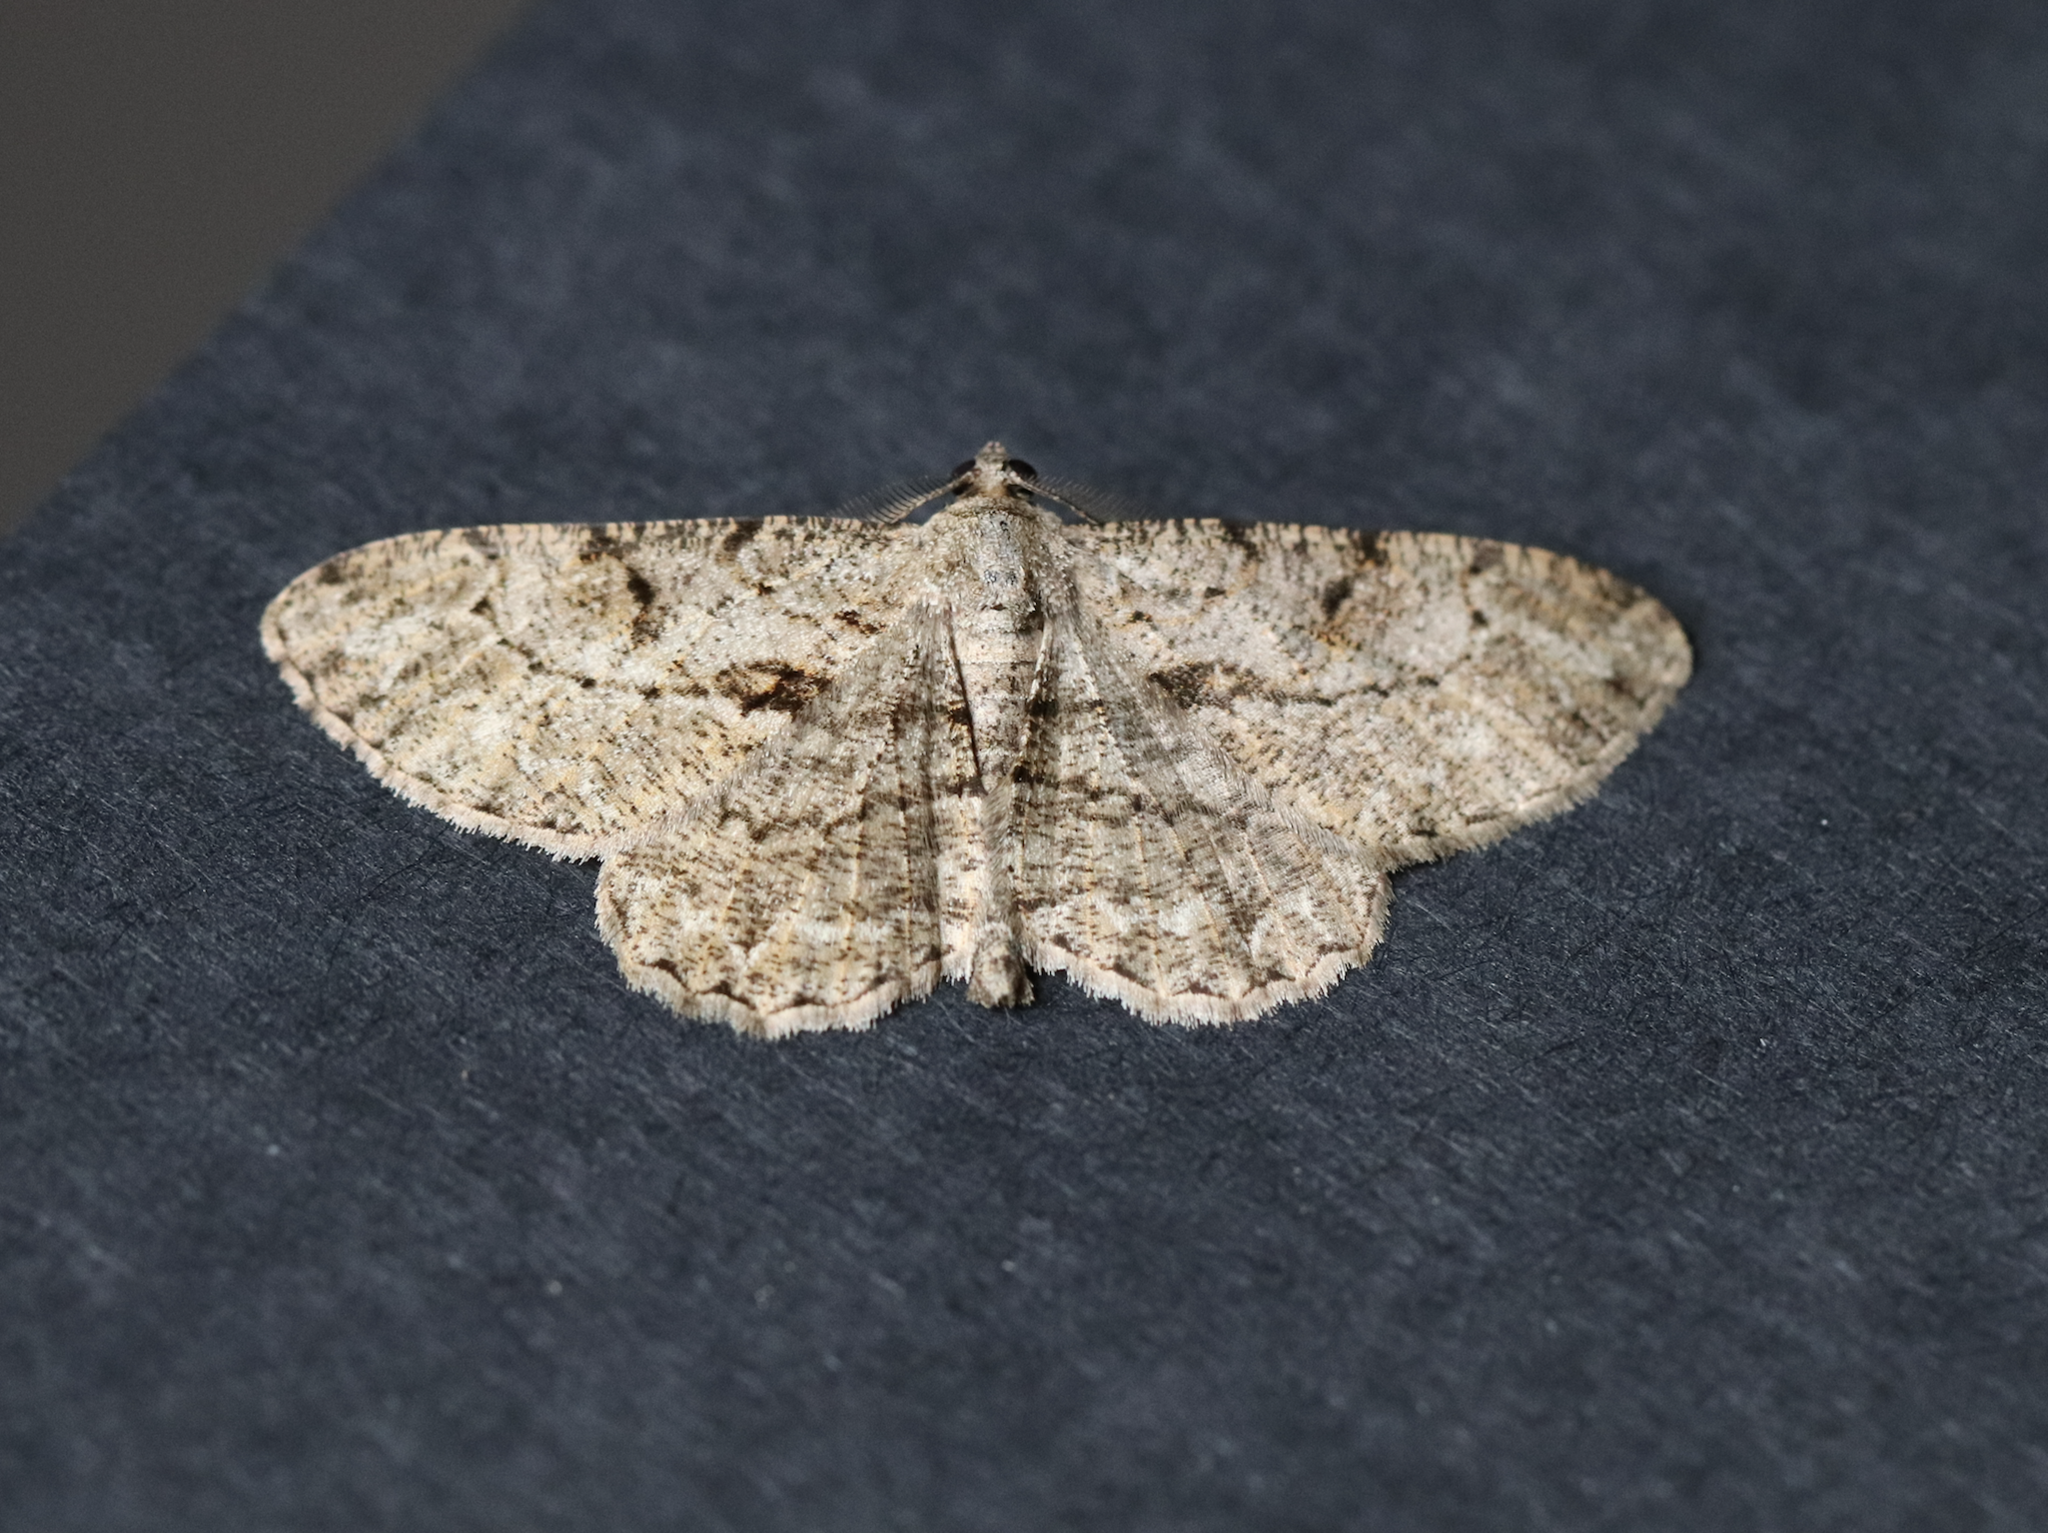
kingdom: Animalia
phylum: Arthropoda
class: Insecta
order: Lepidoptera
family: Geometridae
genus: Peribatodes
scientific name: Peribatodes rhomboidaria
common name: Willow beauty
